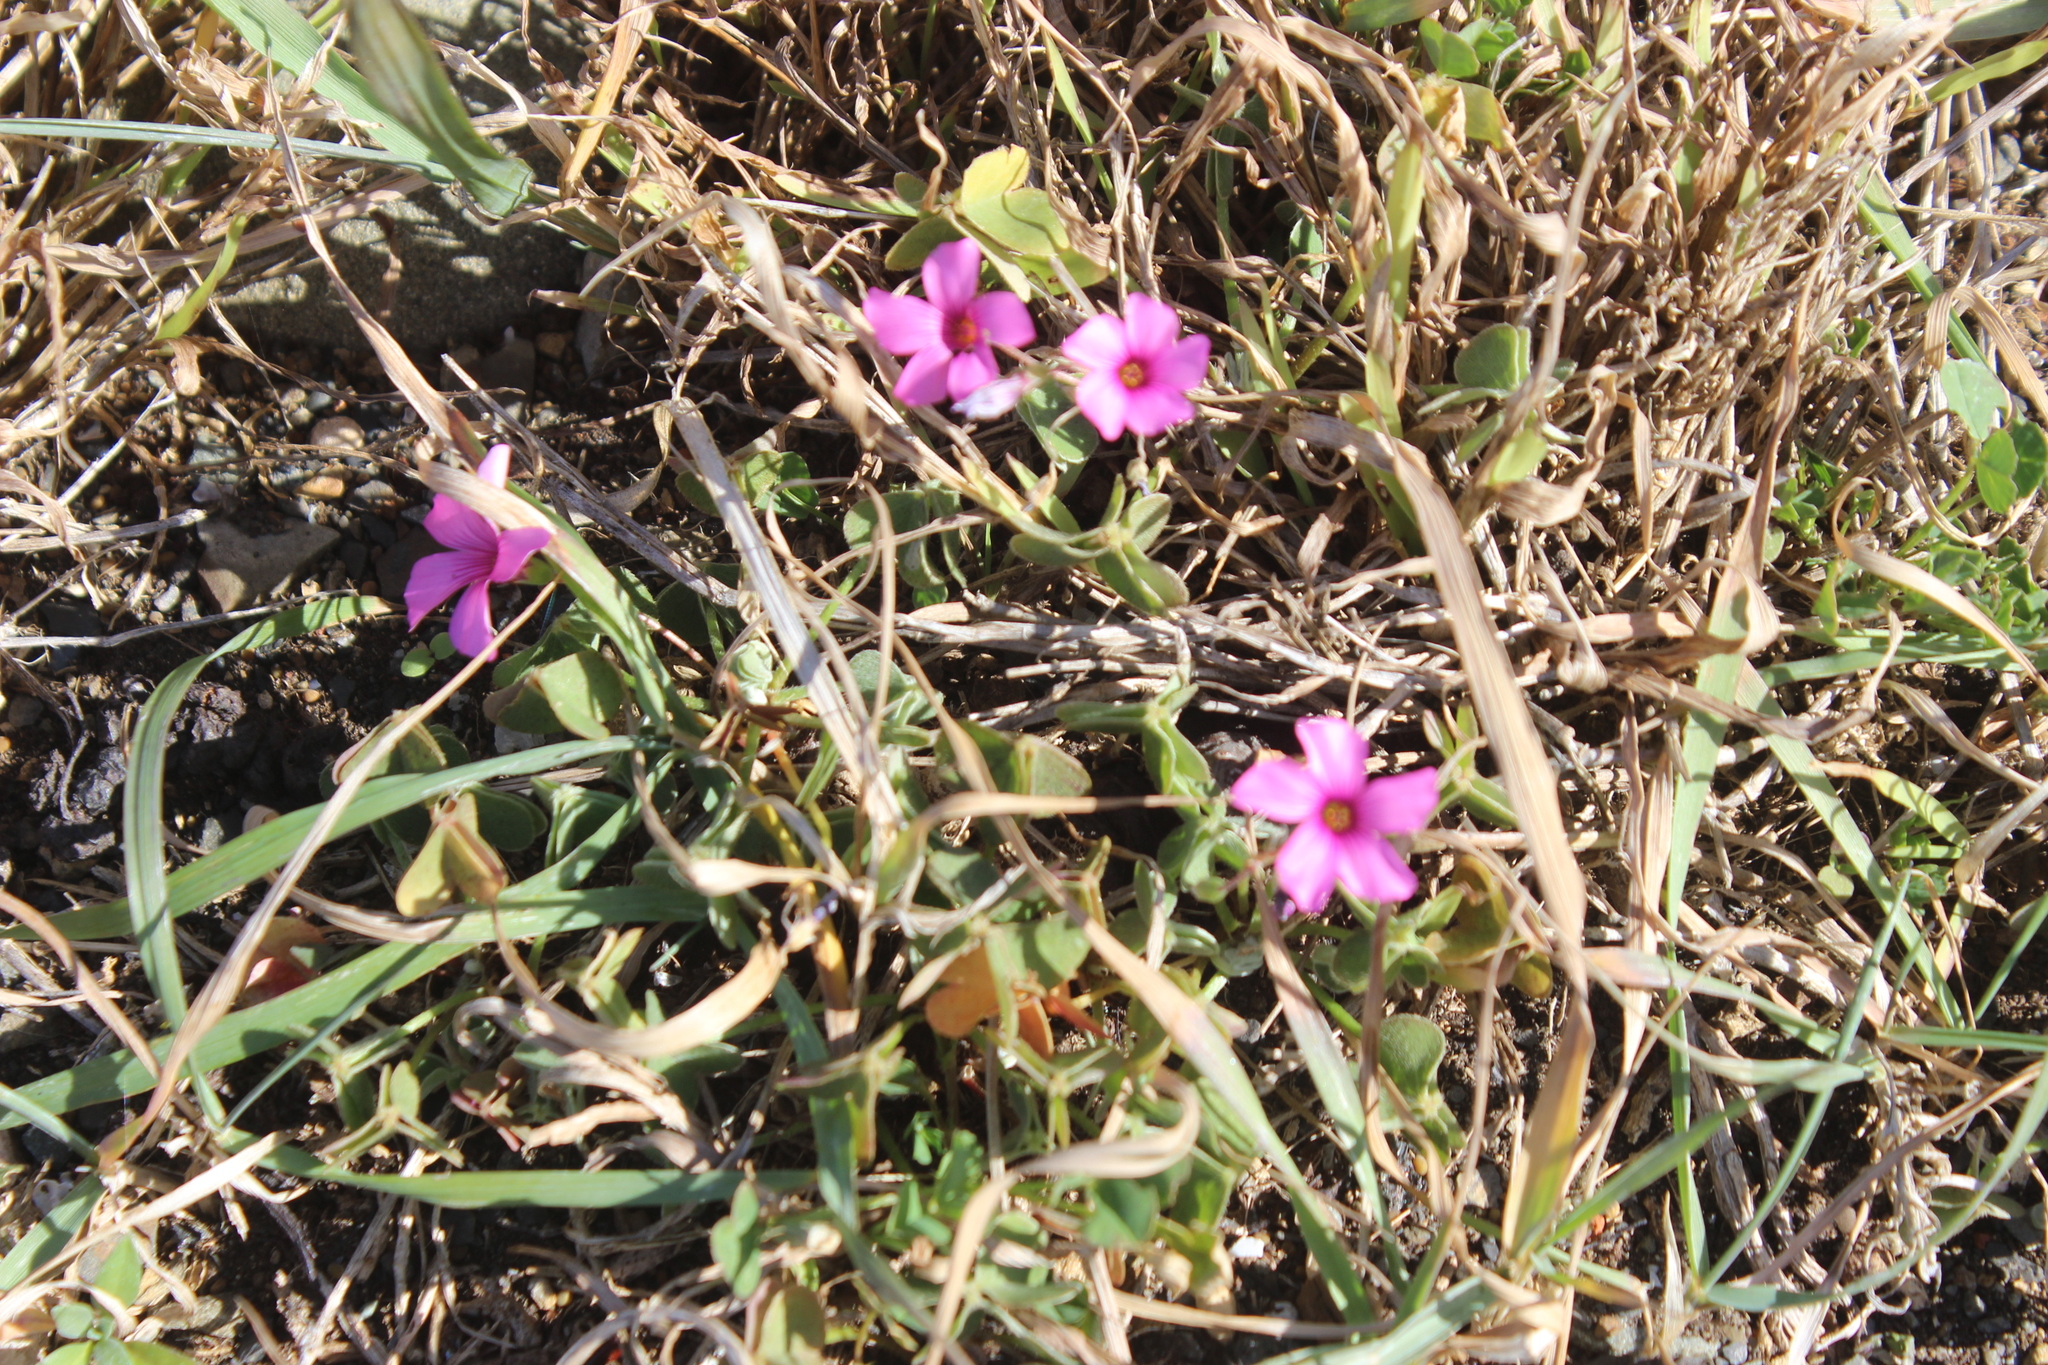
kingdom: Plantae
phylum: Tracheophyta
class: Magnoliopsida
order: Oxalidales
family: Oxalidaceae
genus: Oxalis
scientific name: Oxalis articulata
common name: Pink-sorrel
